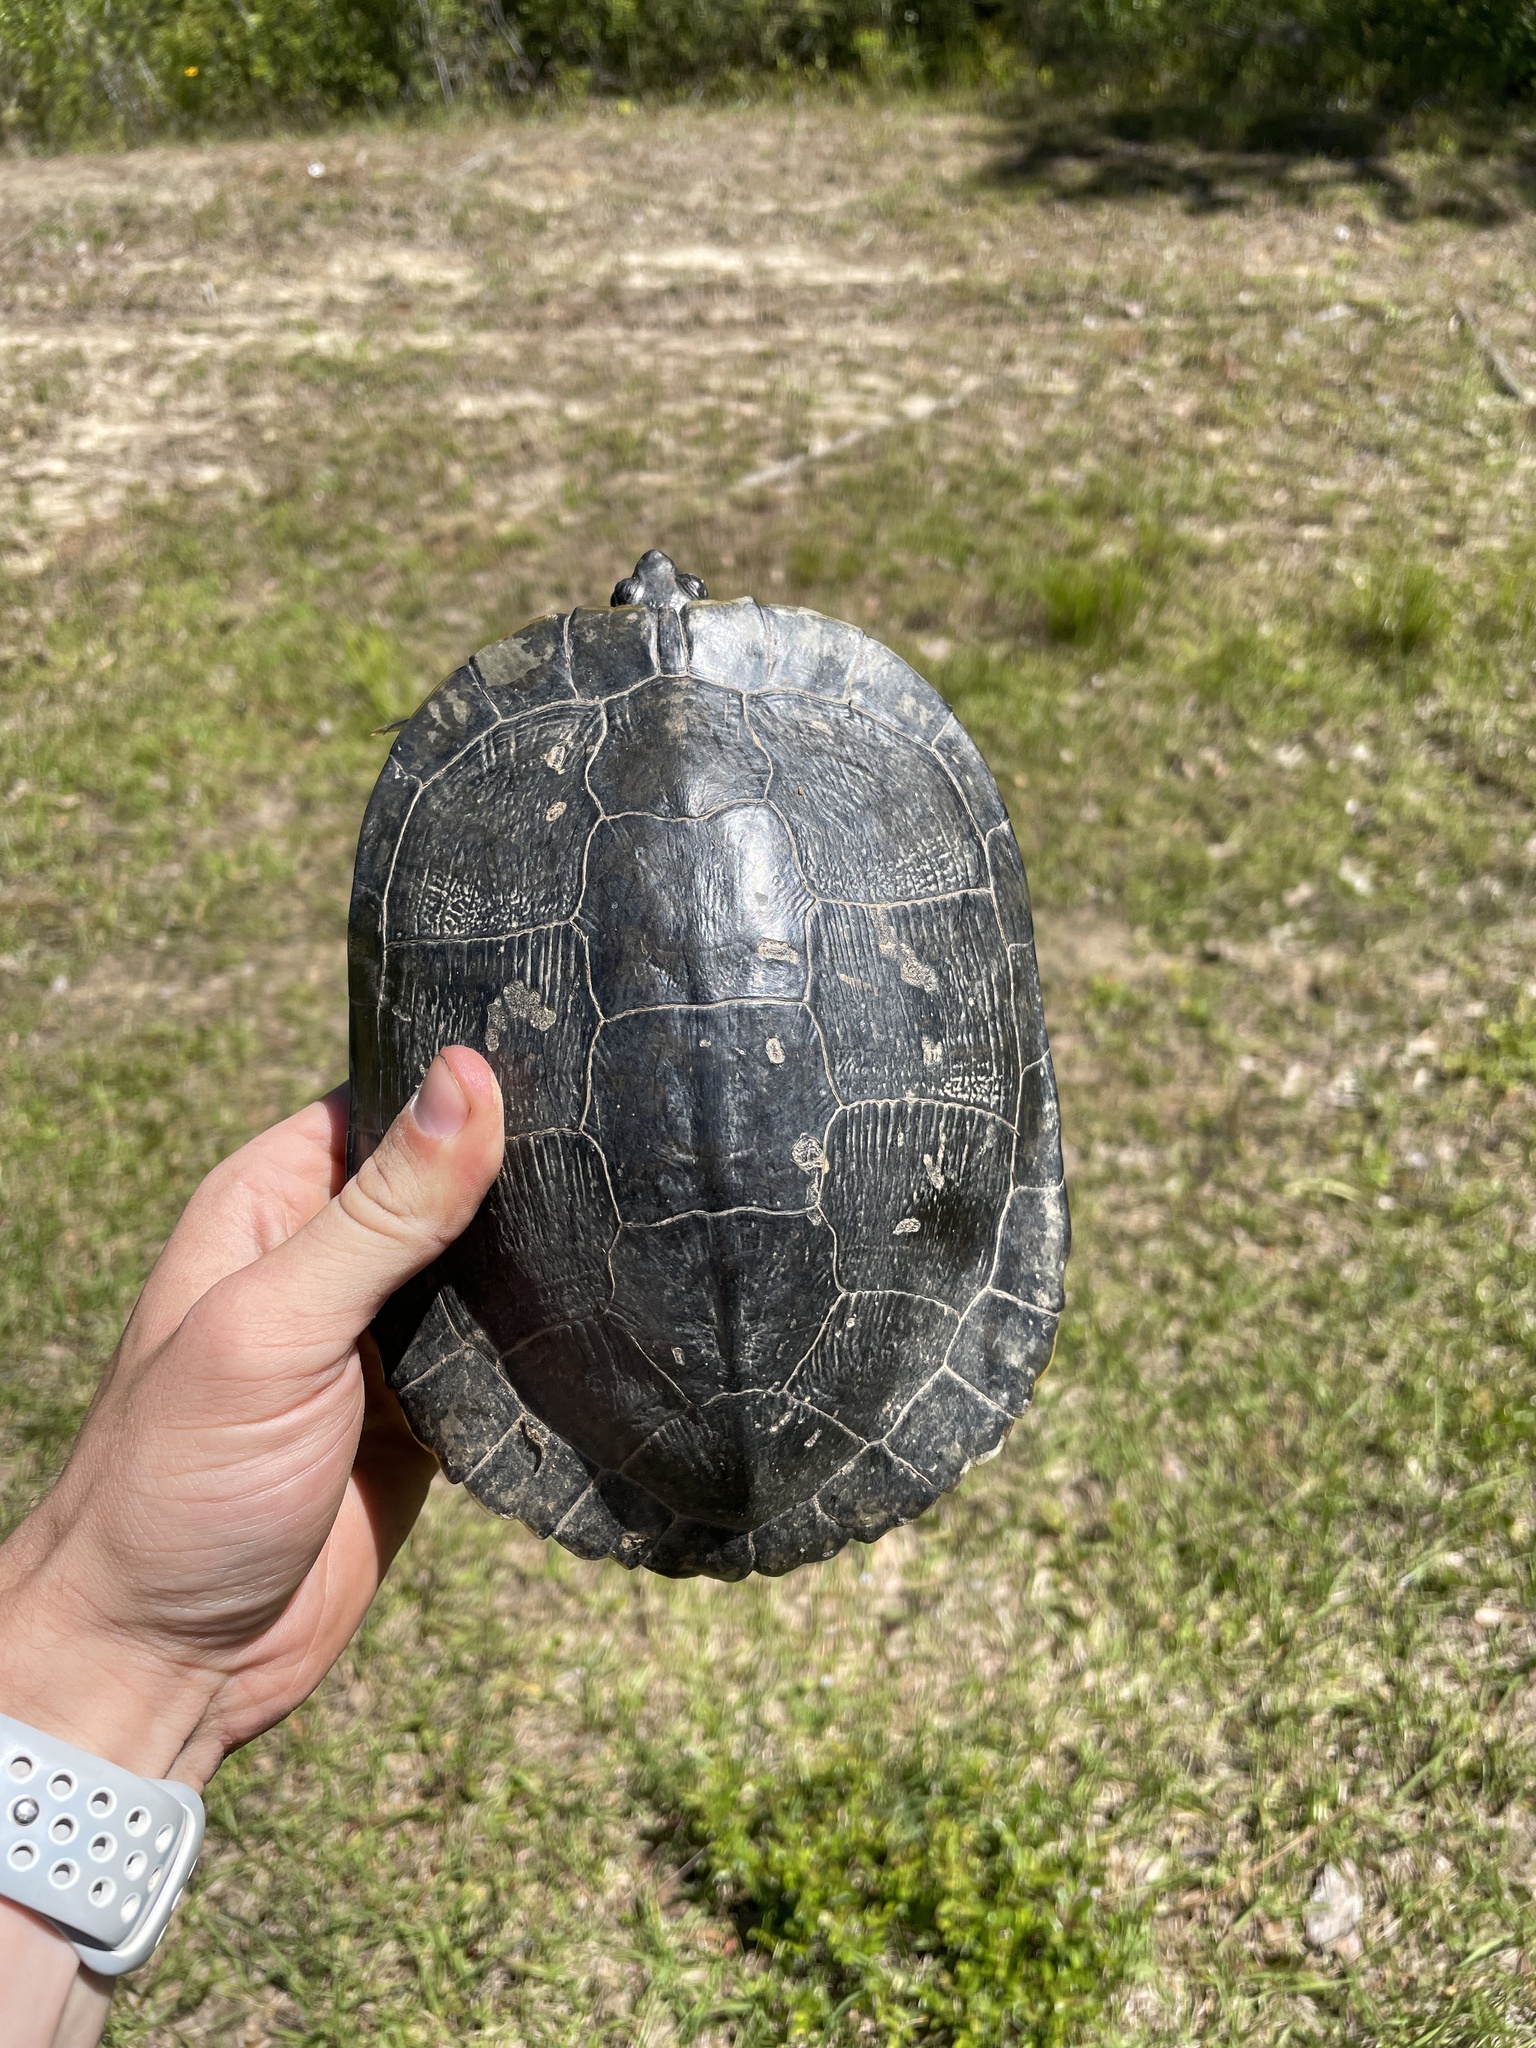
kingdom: Animalia
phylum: Chordata
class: Testudines
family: Emydidae
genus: Trachemys
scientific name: Trachemys scripta
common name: Slider
